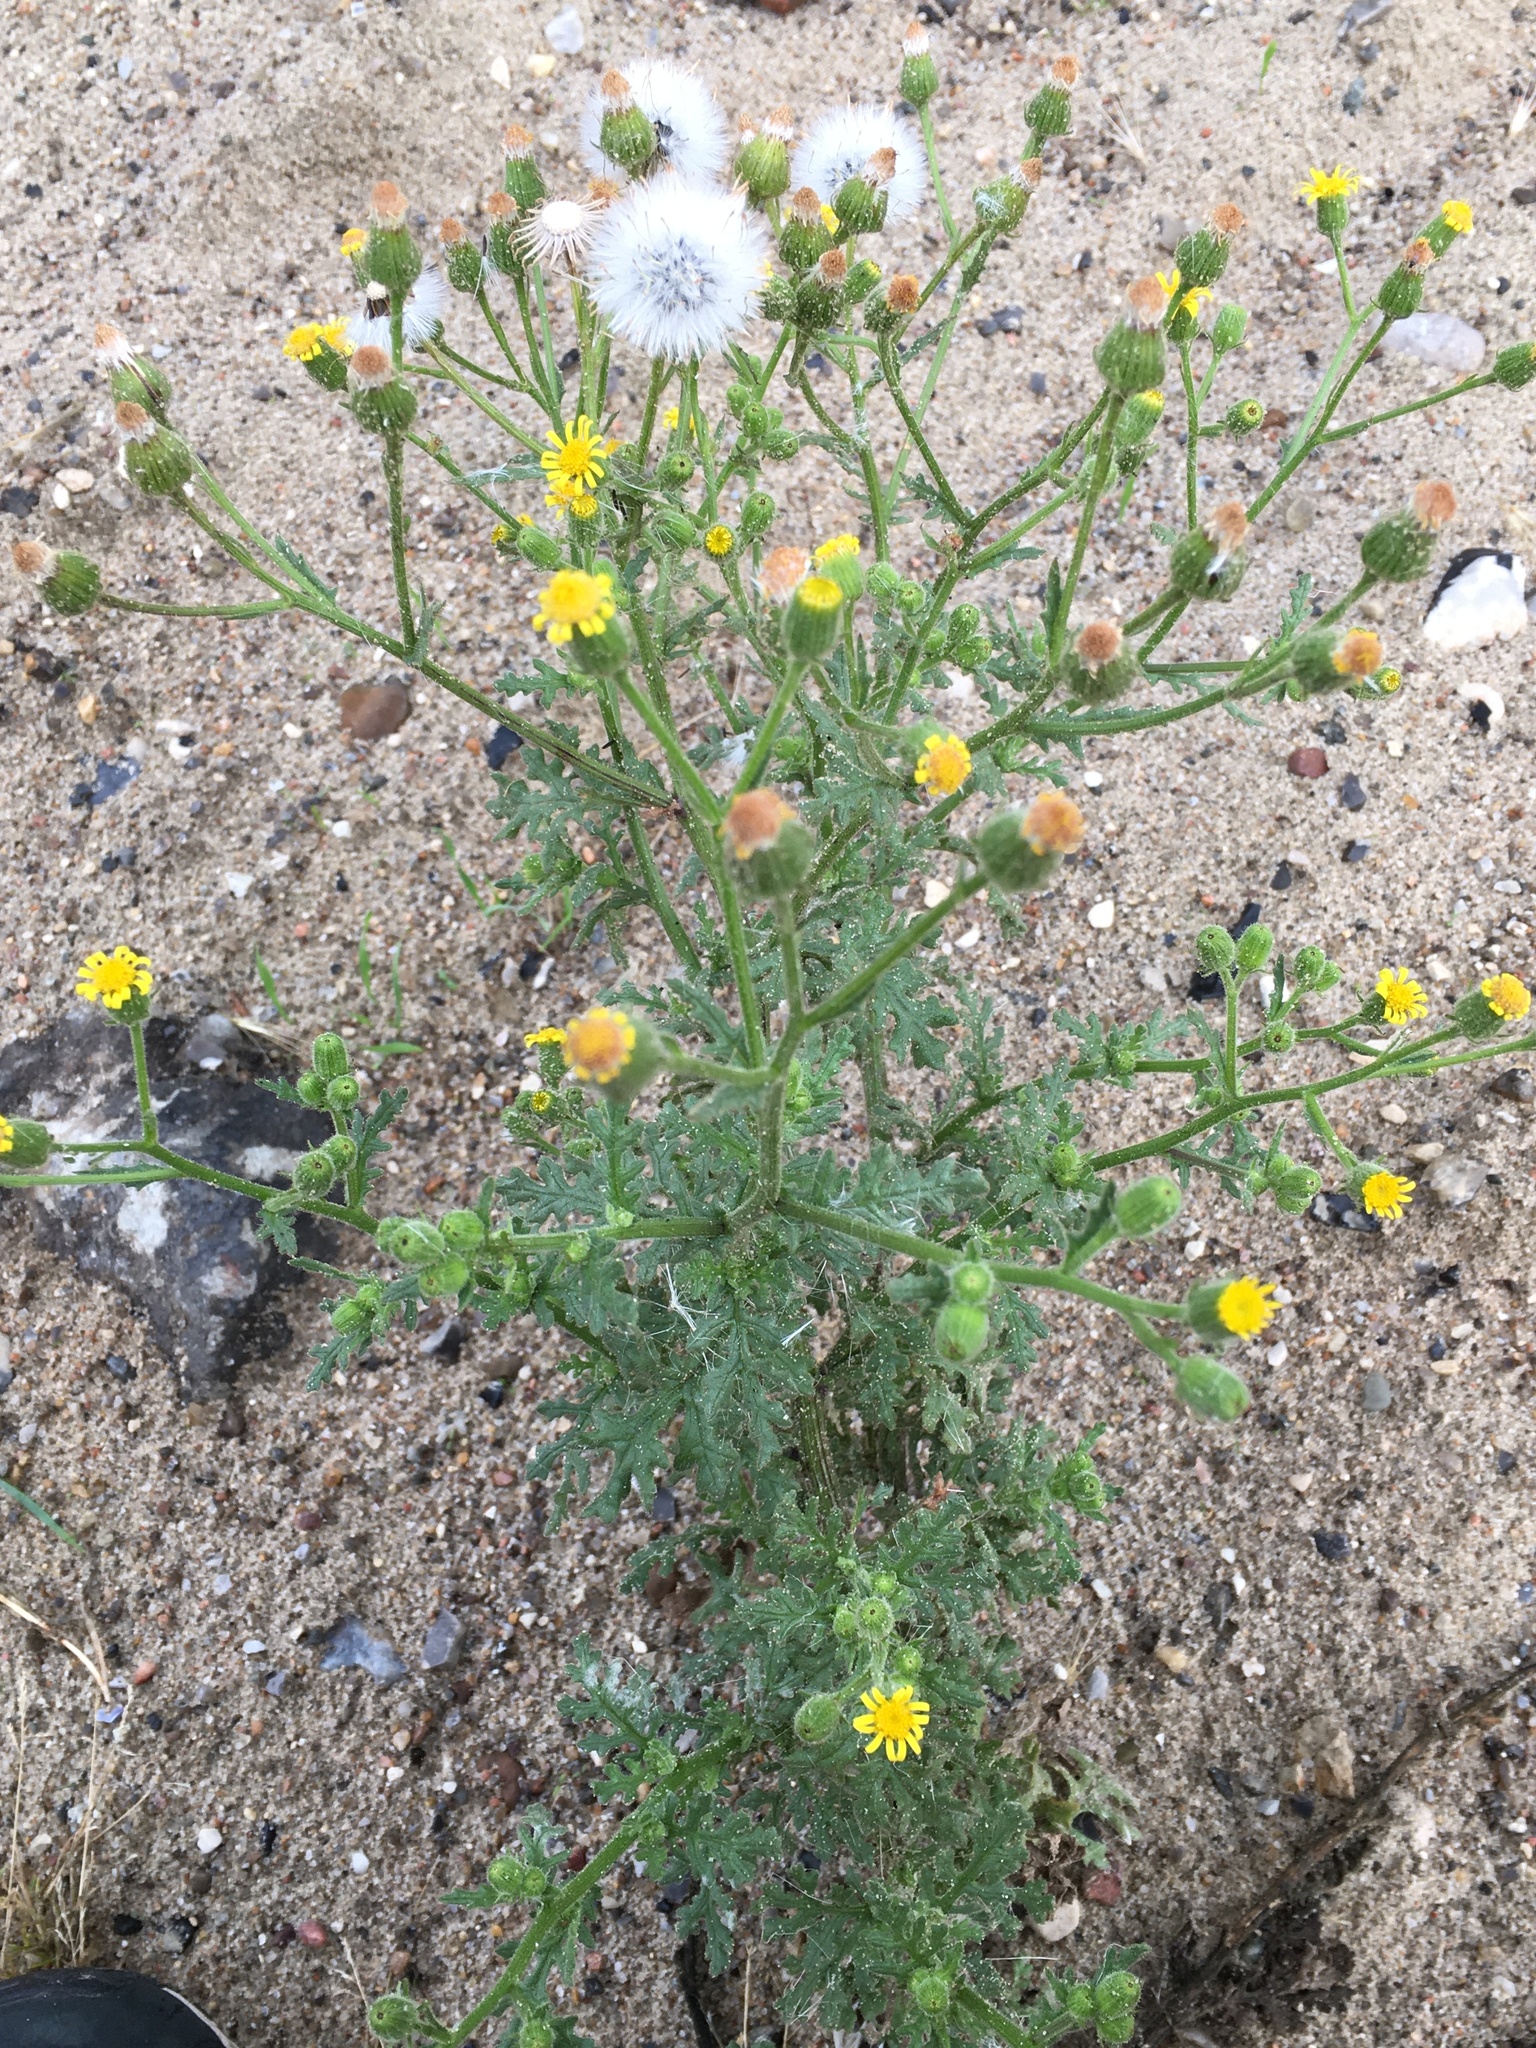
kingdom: Plantae
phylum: Tracheophyta
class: Magnoliopsida
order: Asterales
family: Asteraceae
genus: Senecio
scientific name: Senecio viscosus
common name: Sticky groundsel
